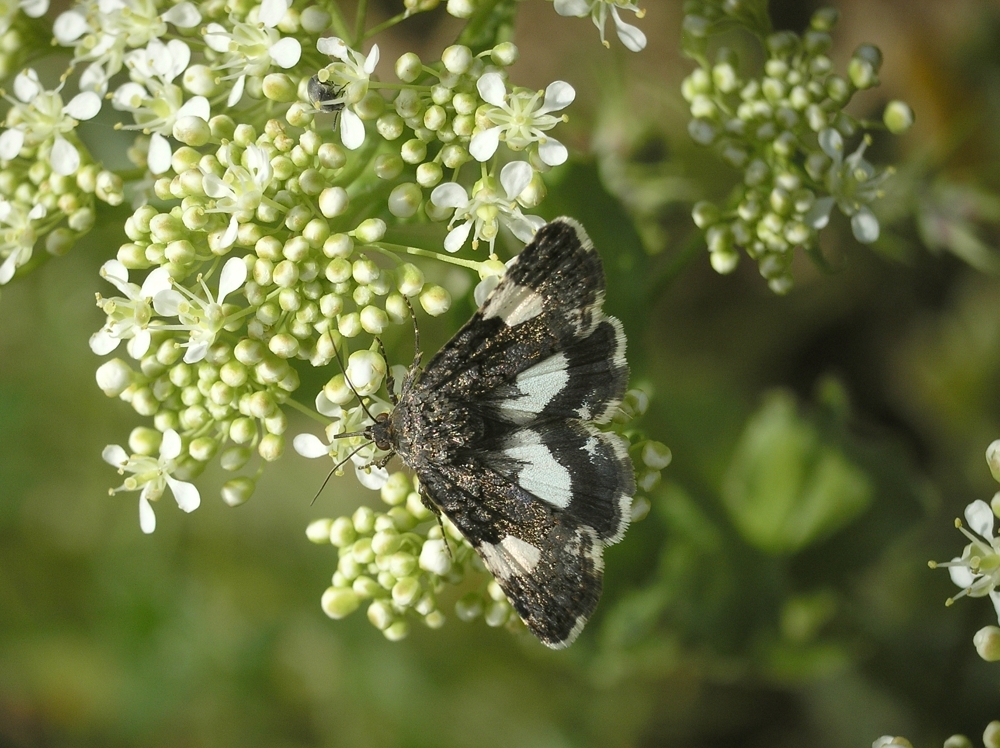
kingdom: Animalia
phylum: Arthropoda
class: Insecta
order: Lepidoptera
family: Erebidae
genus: Tyta
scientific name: Tyta luctuosa
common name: Four-spotted
